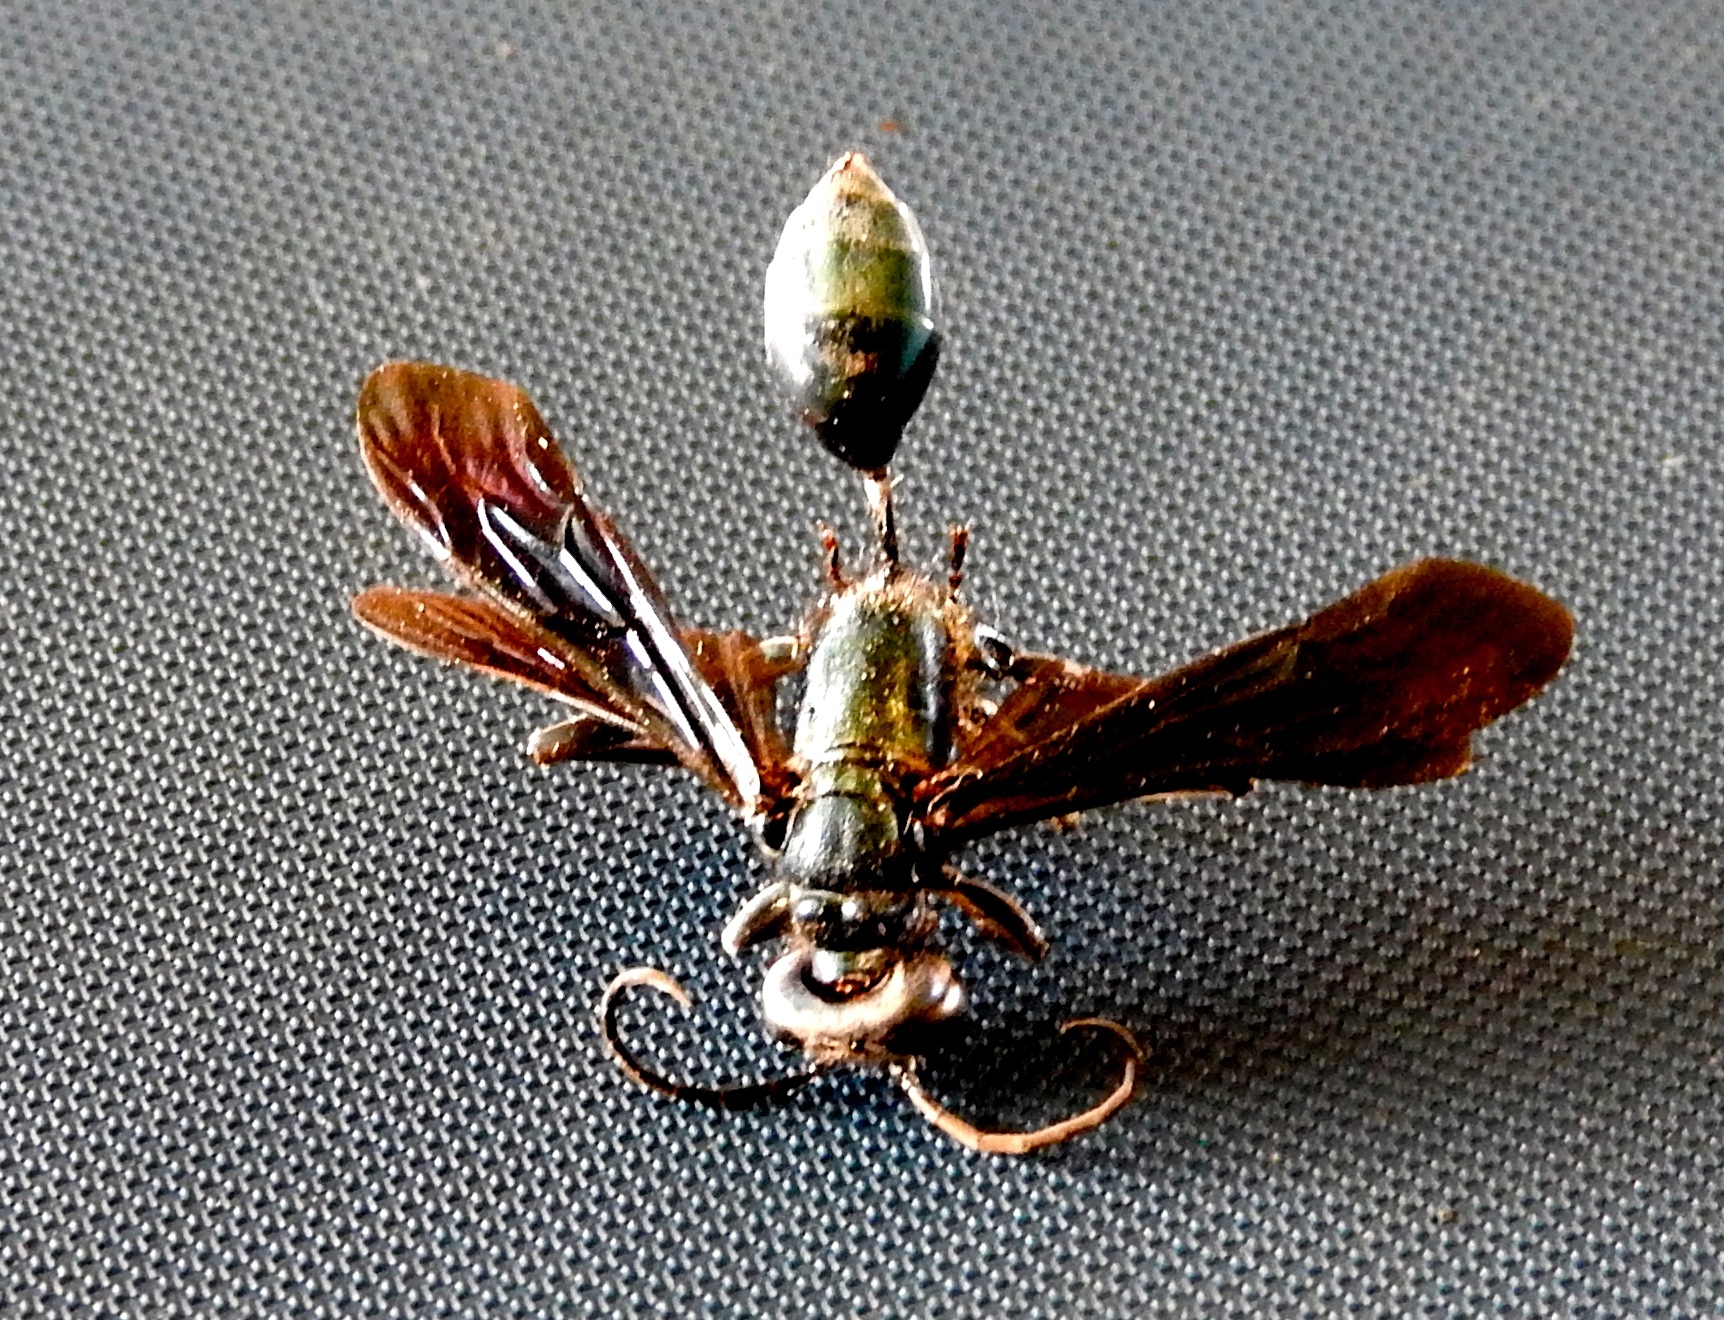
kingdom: Animalia
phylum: Arthropoda
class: Insecta
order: Hymenoptera
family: Sphecidae
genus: Isodontia
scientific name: Isodontia
